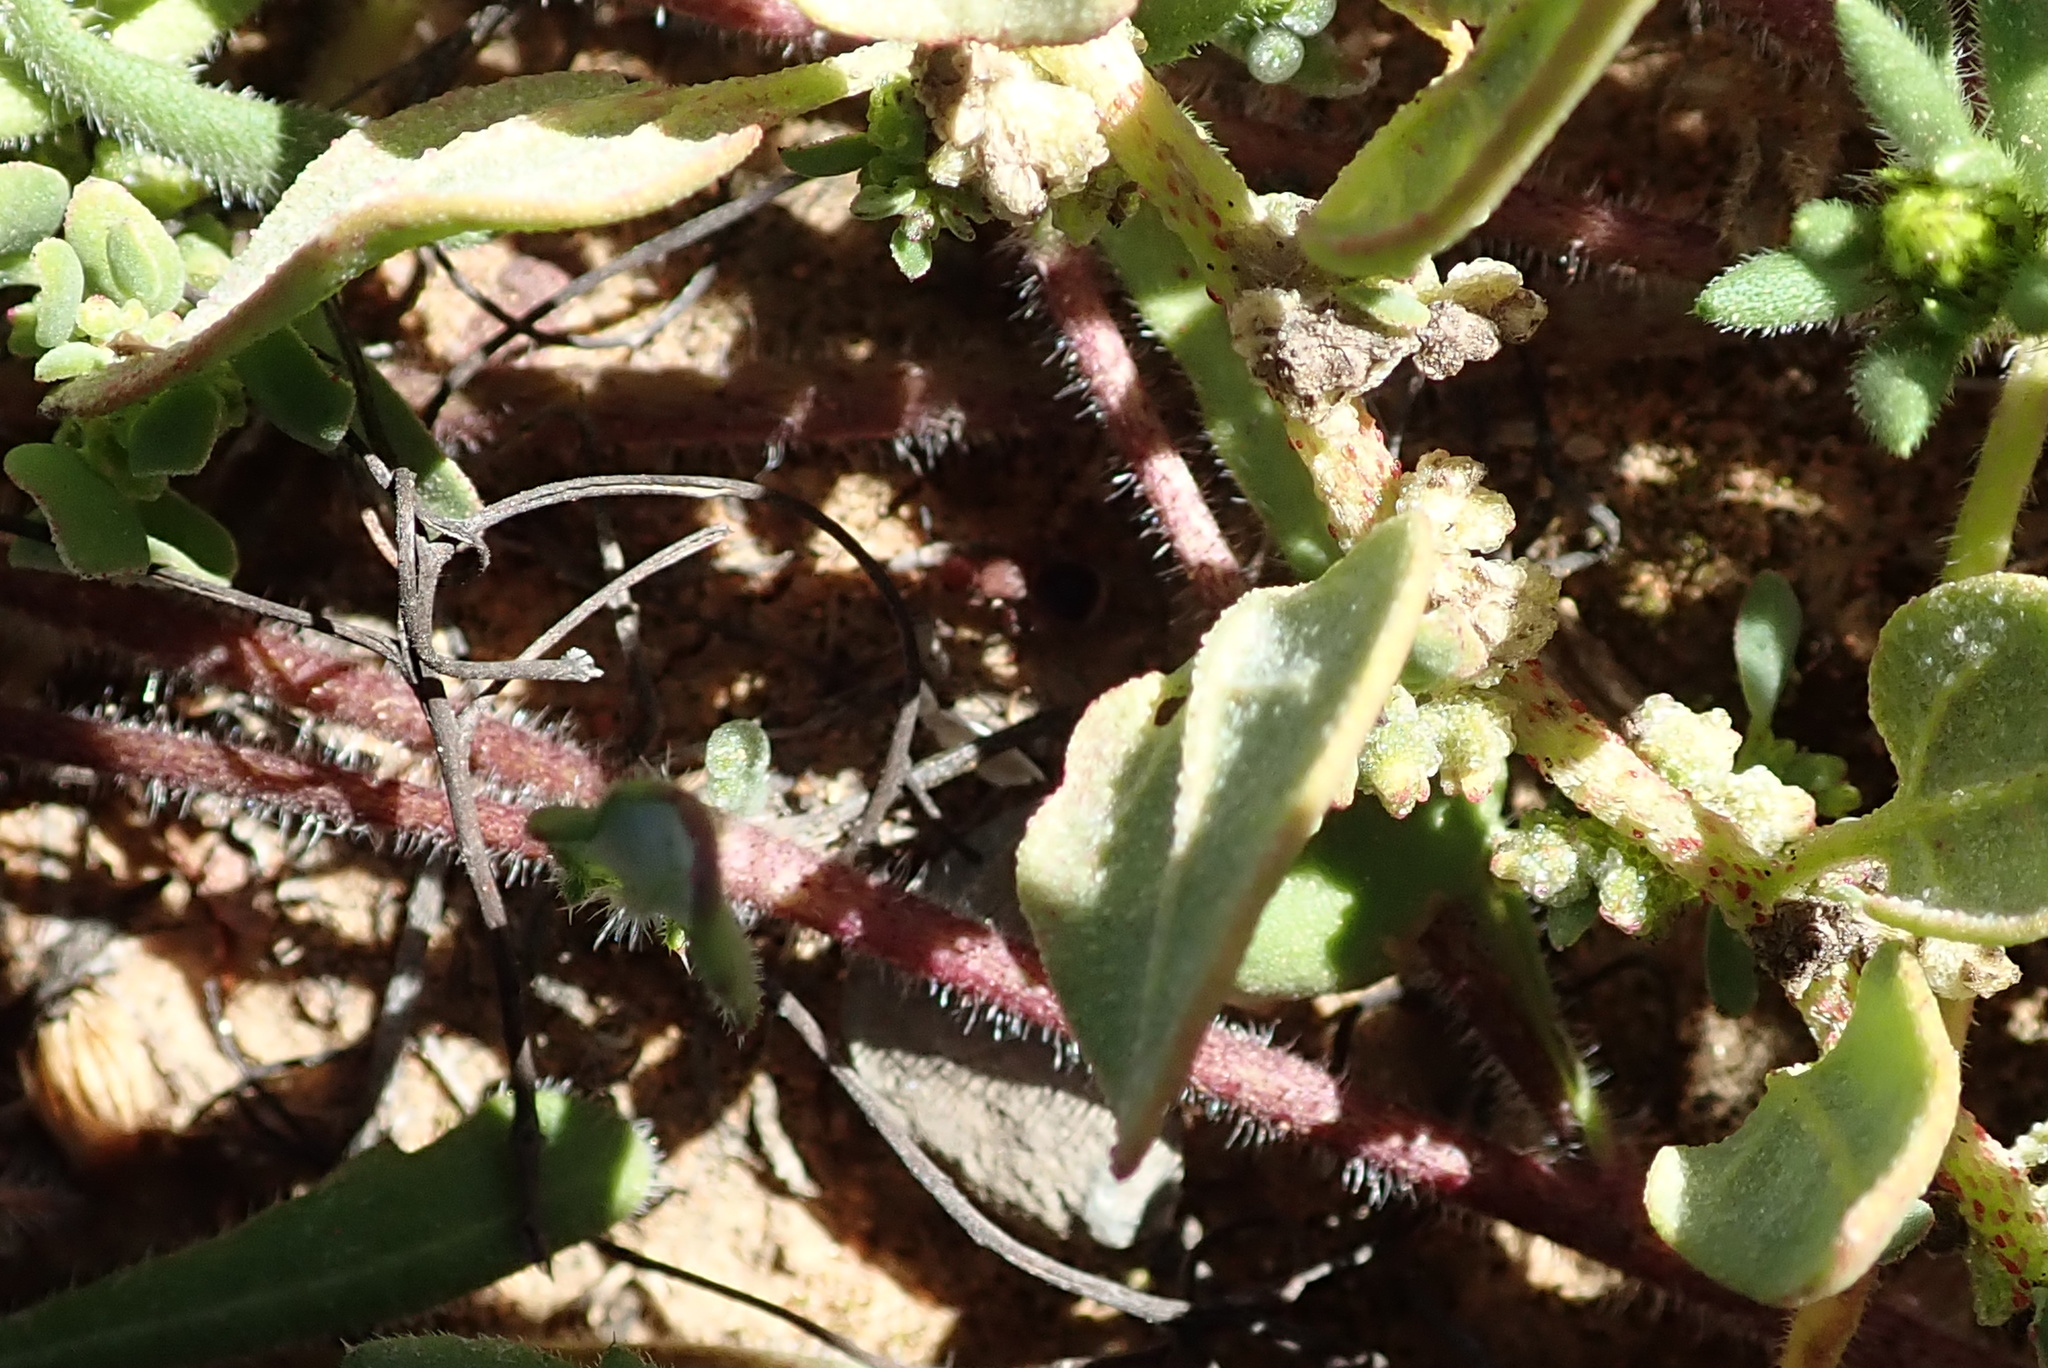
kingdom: Plantae
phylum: Tracheophyta
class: Magnoliopsida
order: Asterales
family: Asteraceae
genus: Gorteria
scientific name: Gorteria diffusa
